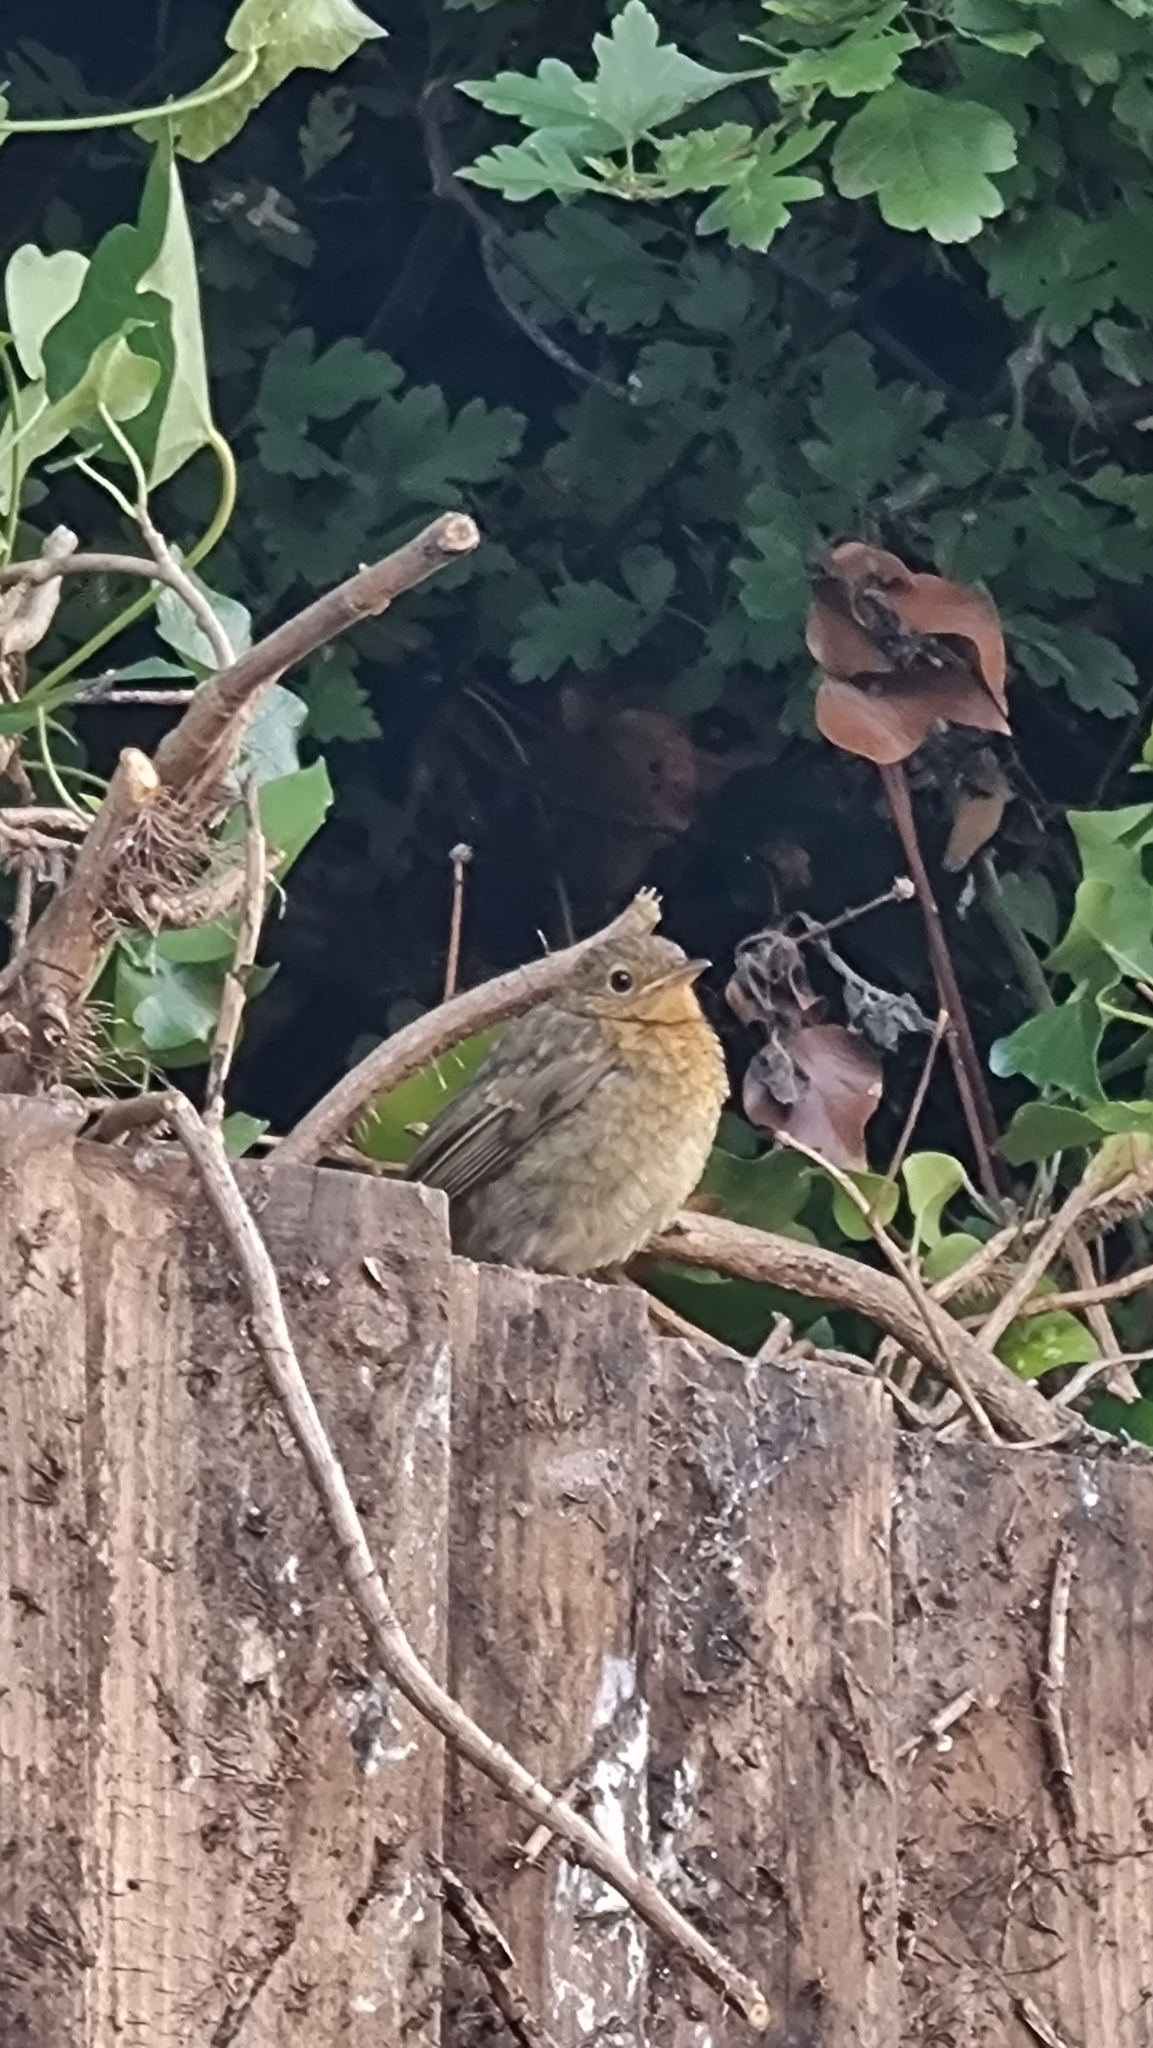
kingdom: Animalia
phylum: Chordata
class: Aves
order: Passeriformes
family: Muscicapidae
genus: Erithacus
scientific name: Erithacus rubecula
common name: European robin
